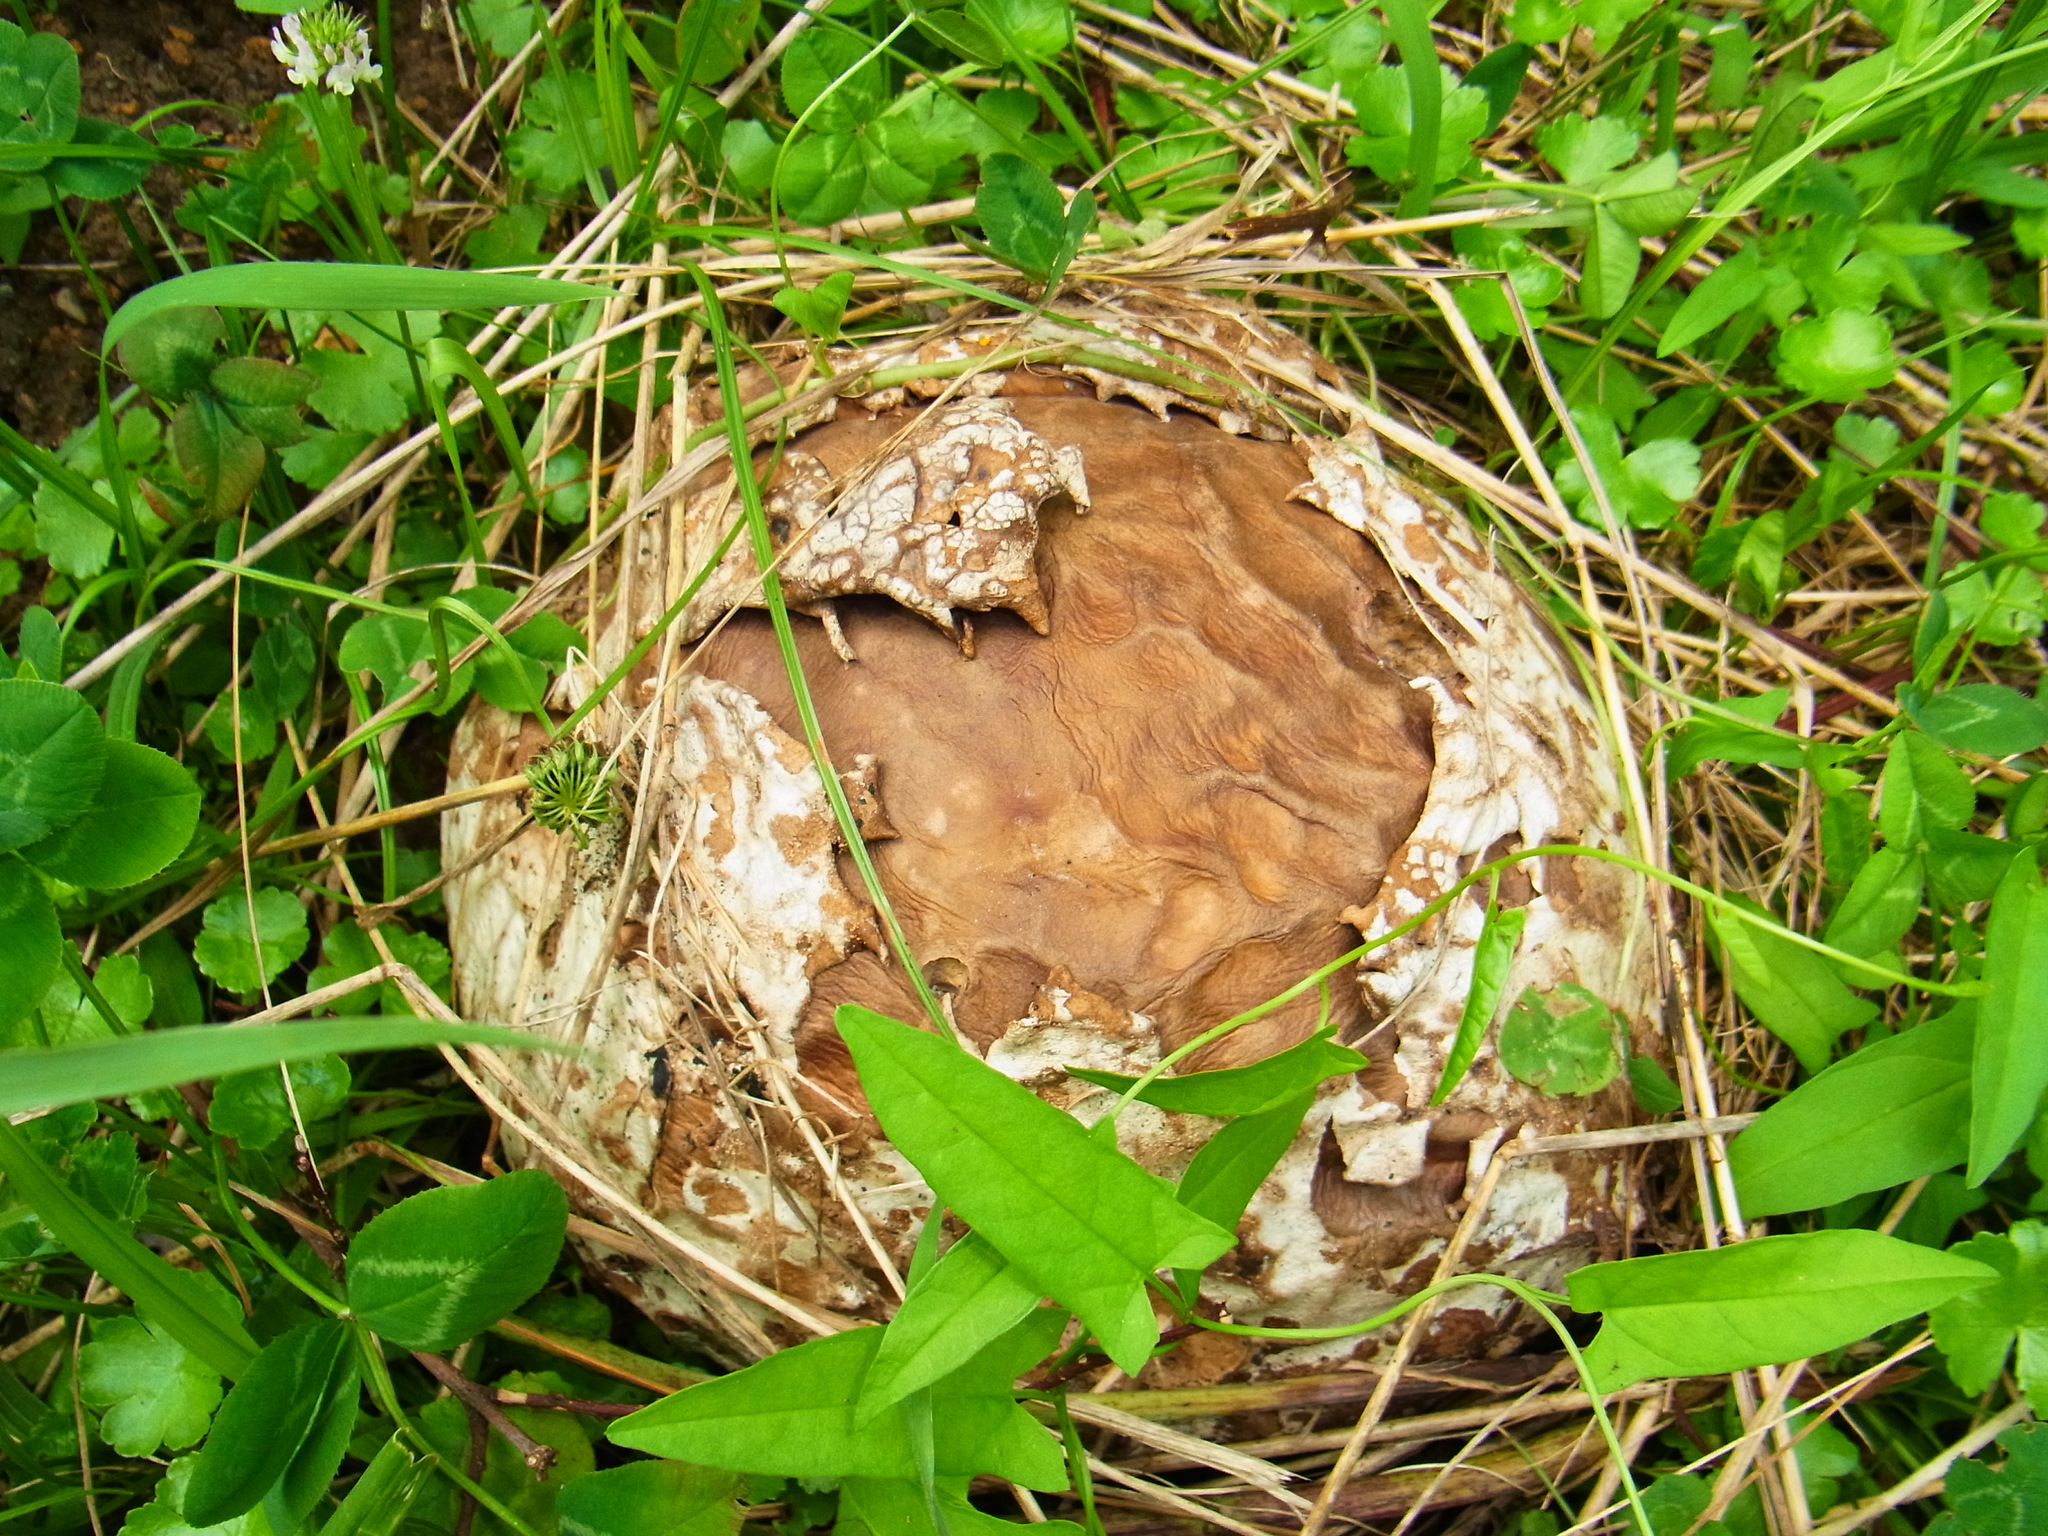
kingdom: Fungi
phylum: Basidiomycota
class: Agaricomycetes
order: Agaricales
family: Lycoperdaceae
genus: Calvatia
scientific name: Calvatia nipponica
